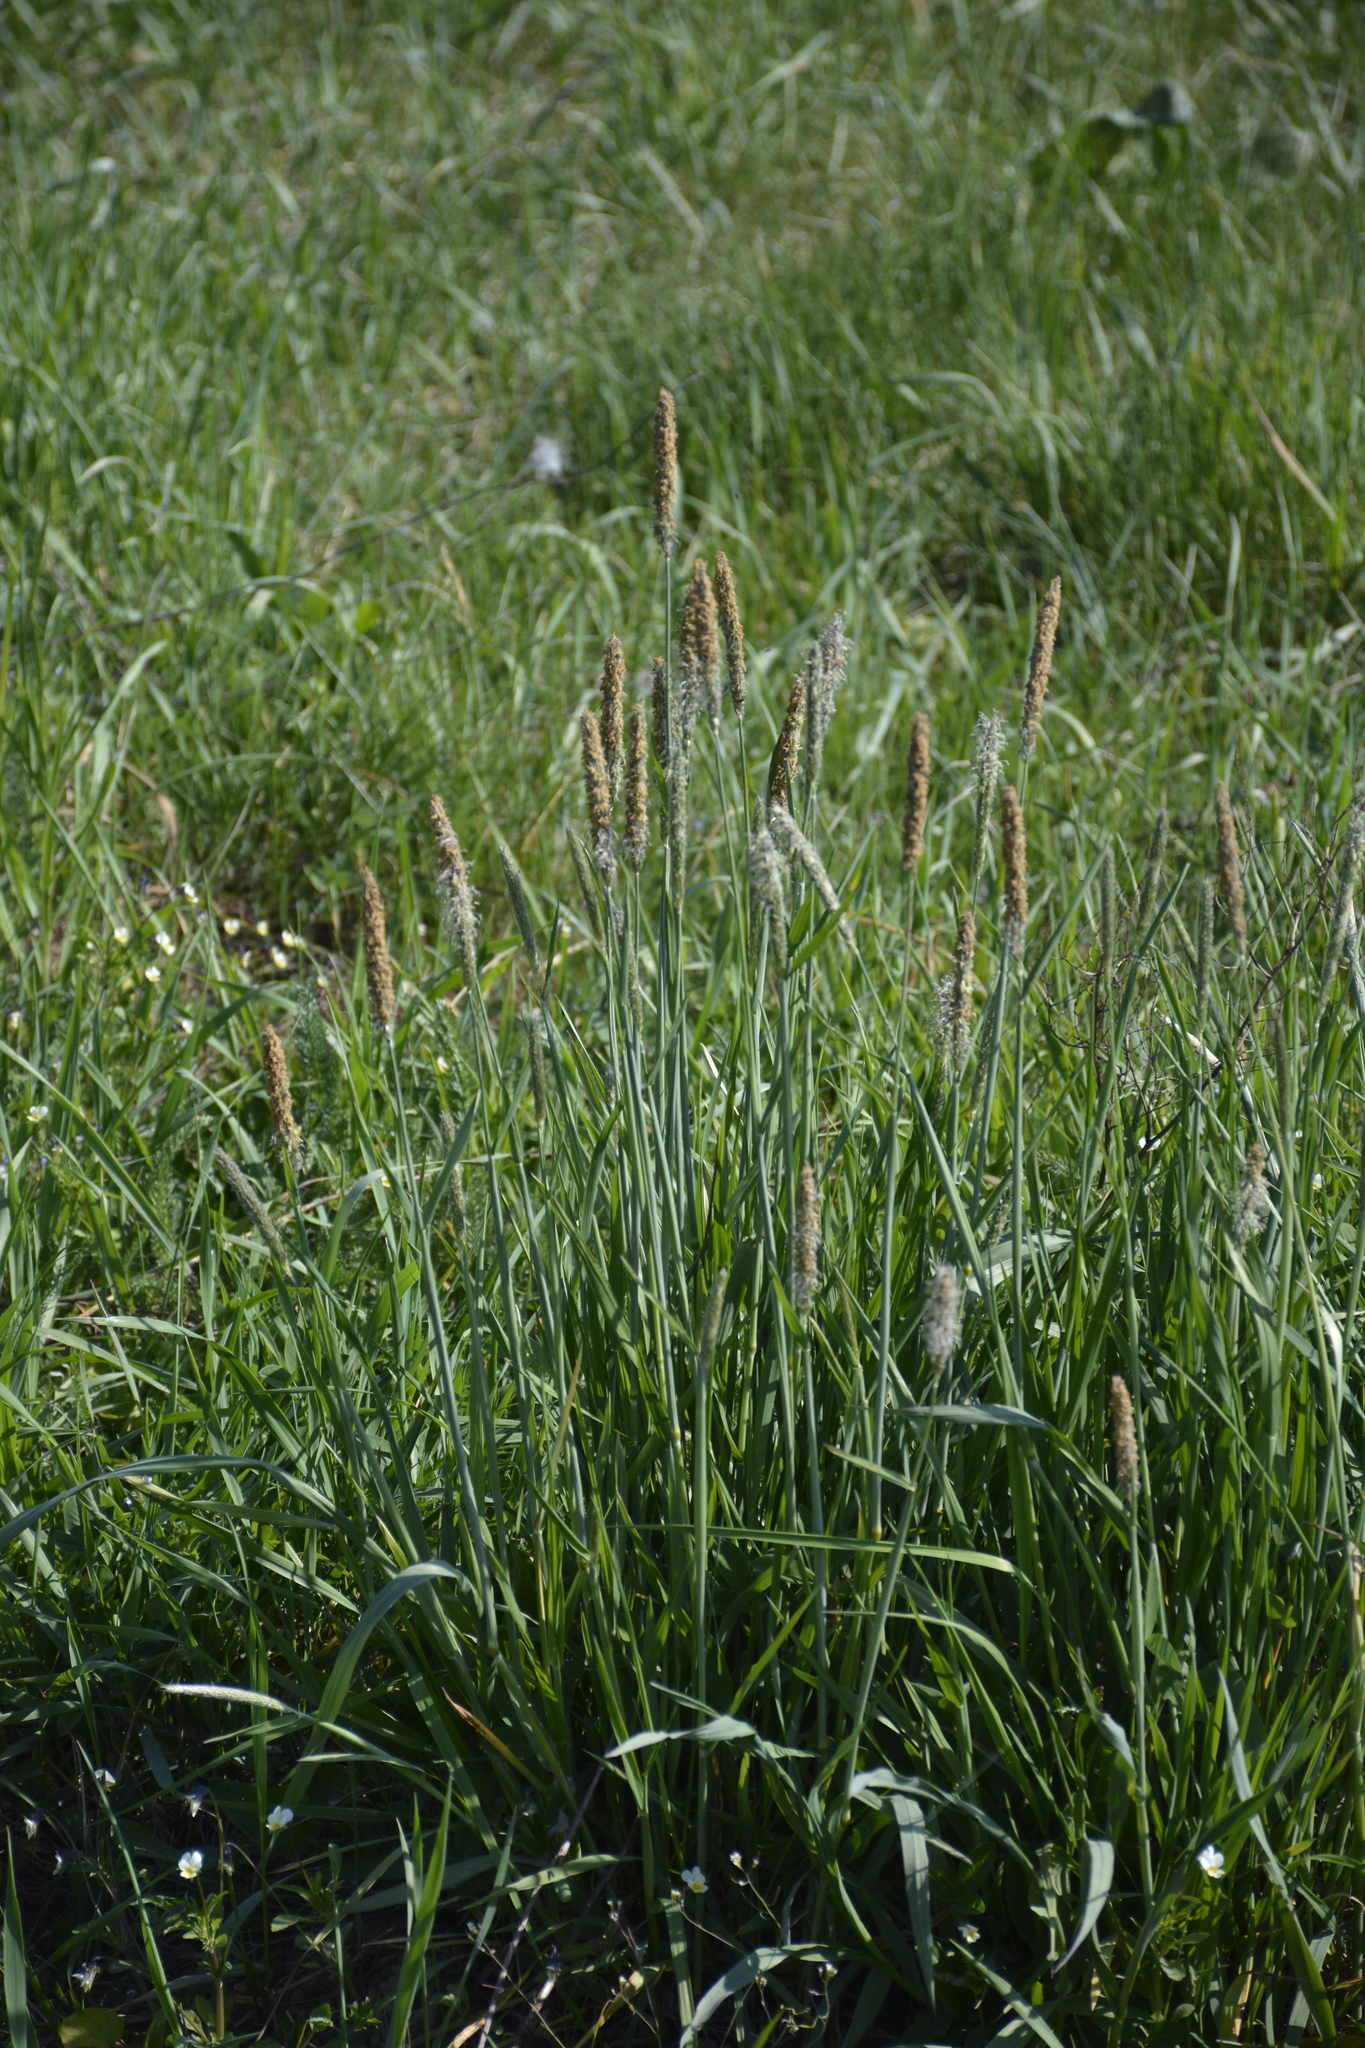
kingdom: Plantae
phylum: Tracheophyta
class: Liliopsida
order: Poales
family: Poaceae
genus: Alopecurus
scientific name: Alopecurus pratensis
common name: Meadow foxtail
